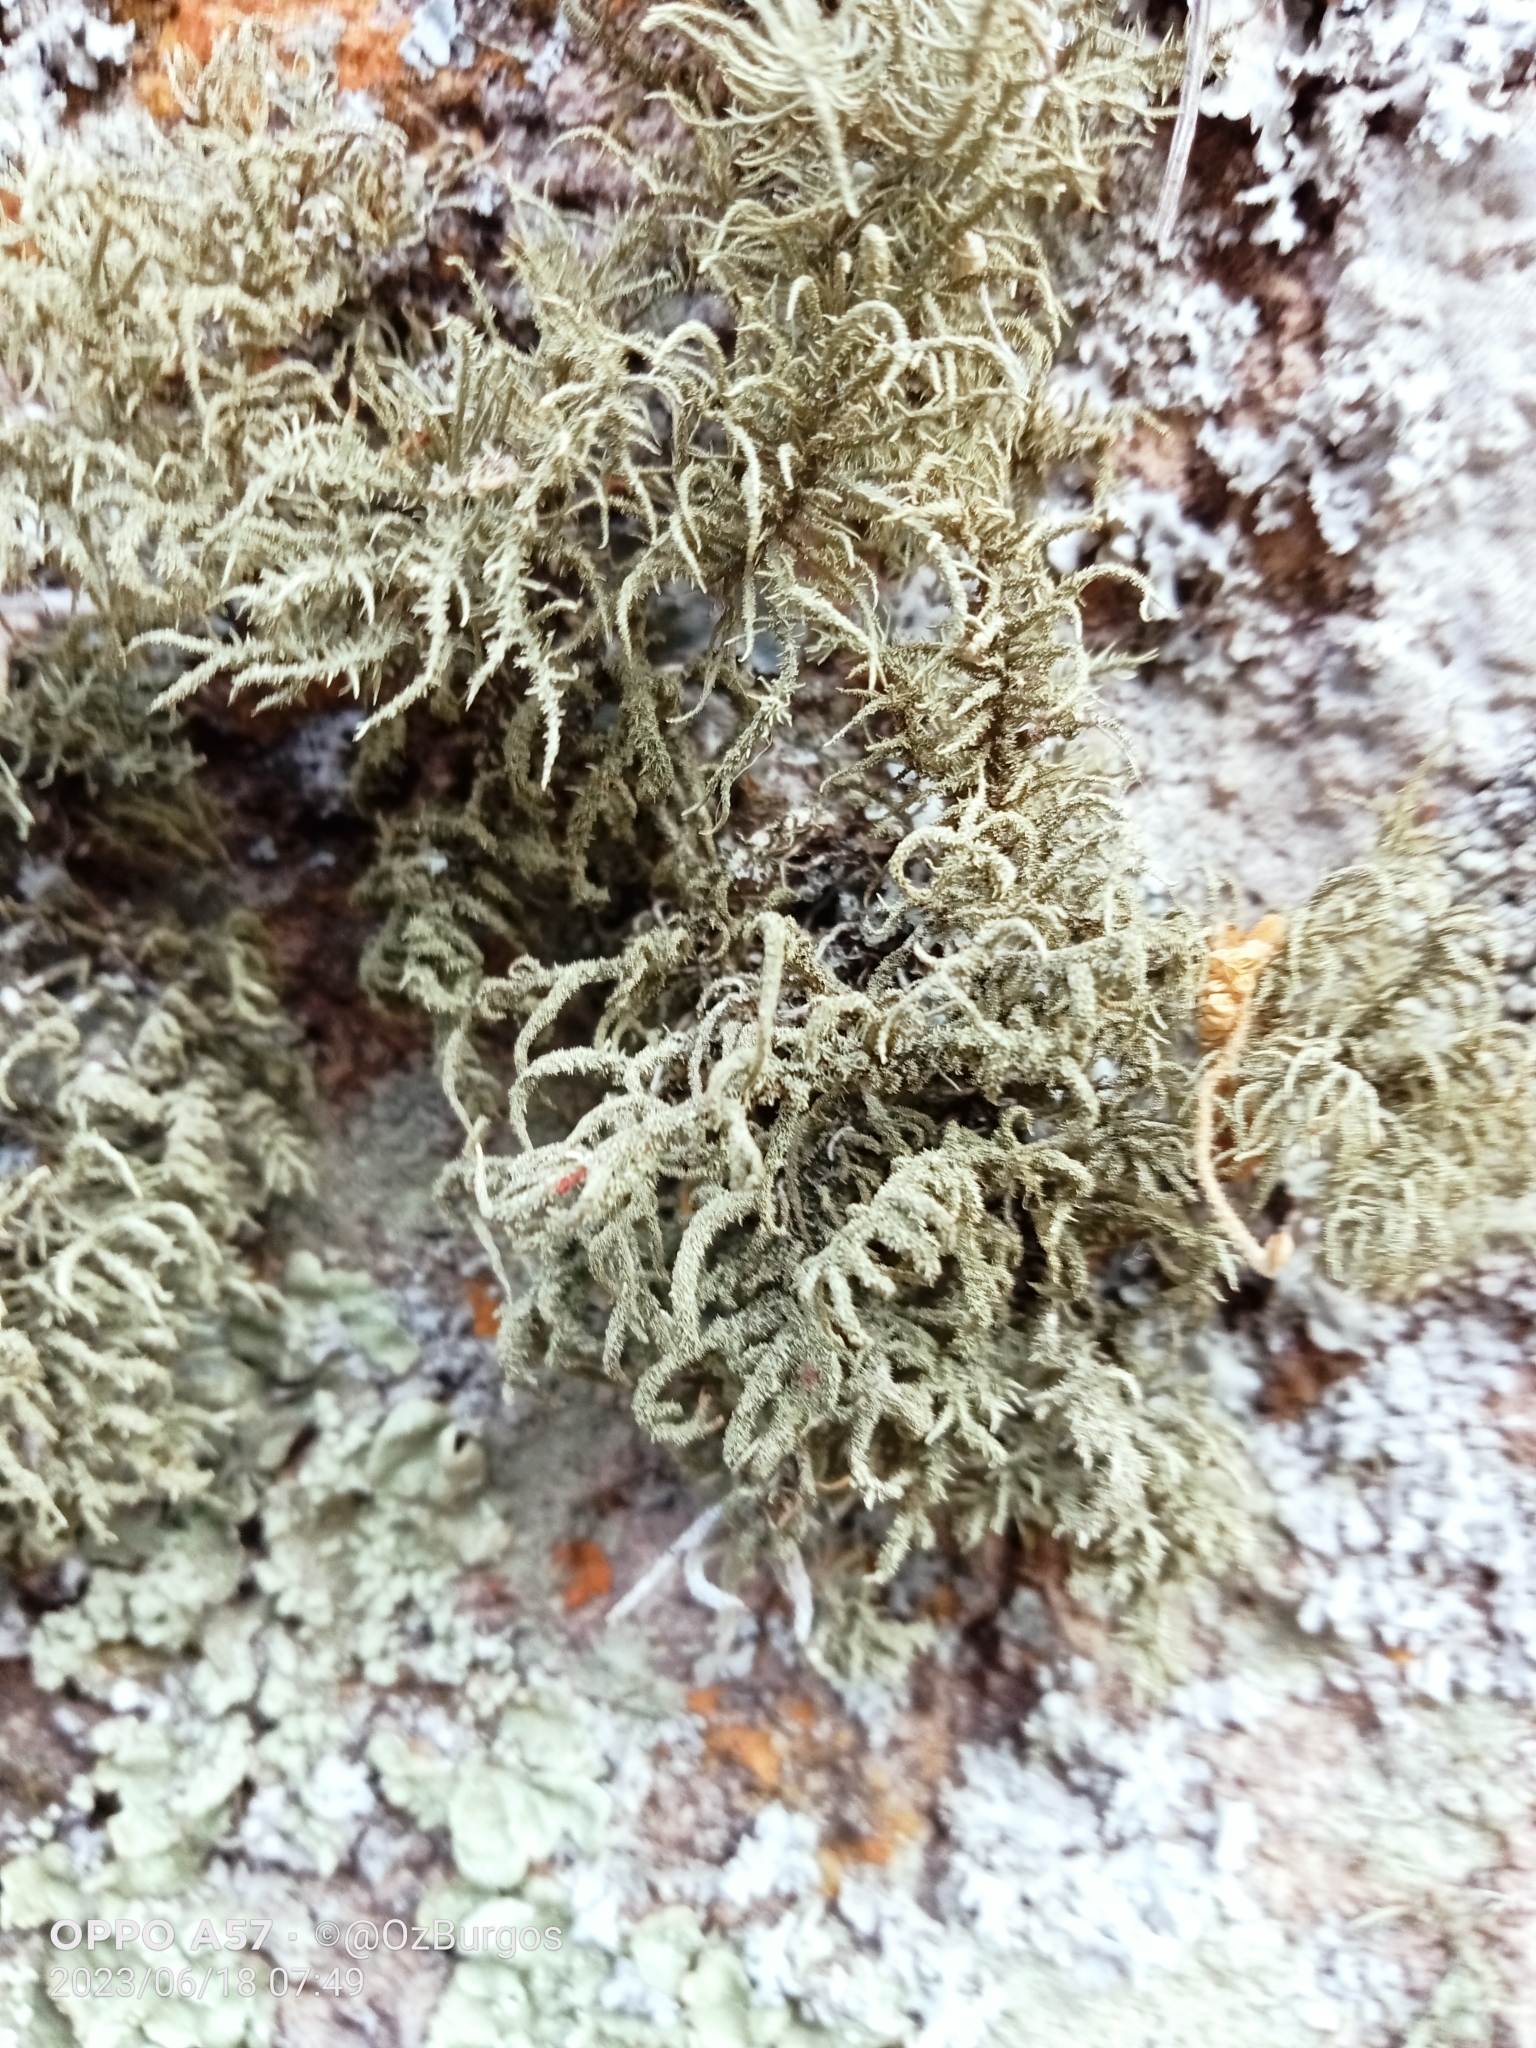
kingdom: Fungi
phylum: Ascomycota
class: Lecanoromycetes
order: Lecanorales
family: Parmeliaceae
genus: Usnea
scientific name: Usnea hirta
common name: Bristly beard lichen
